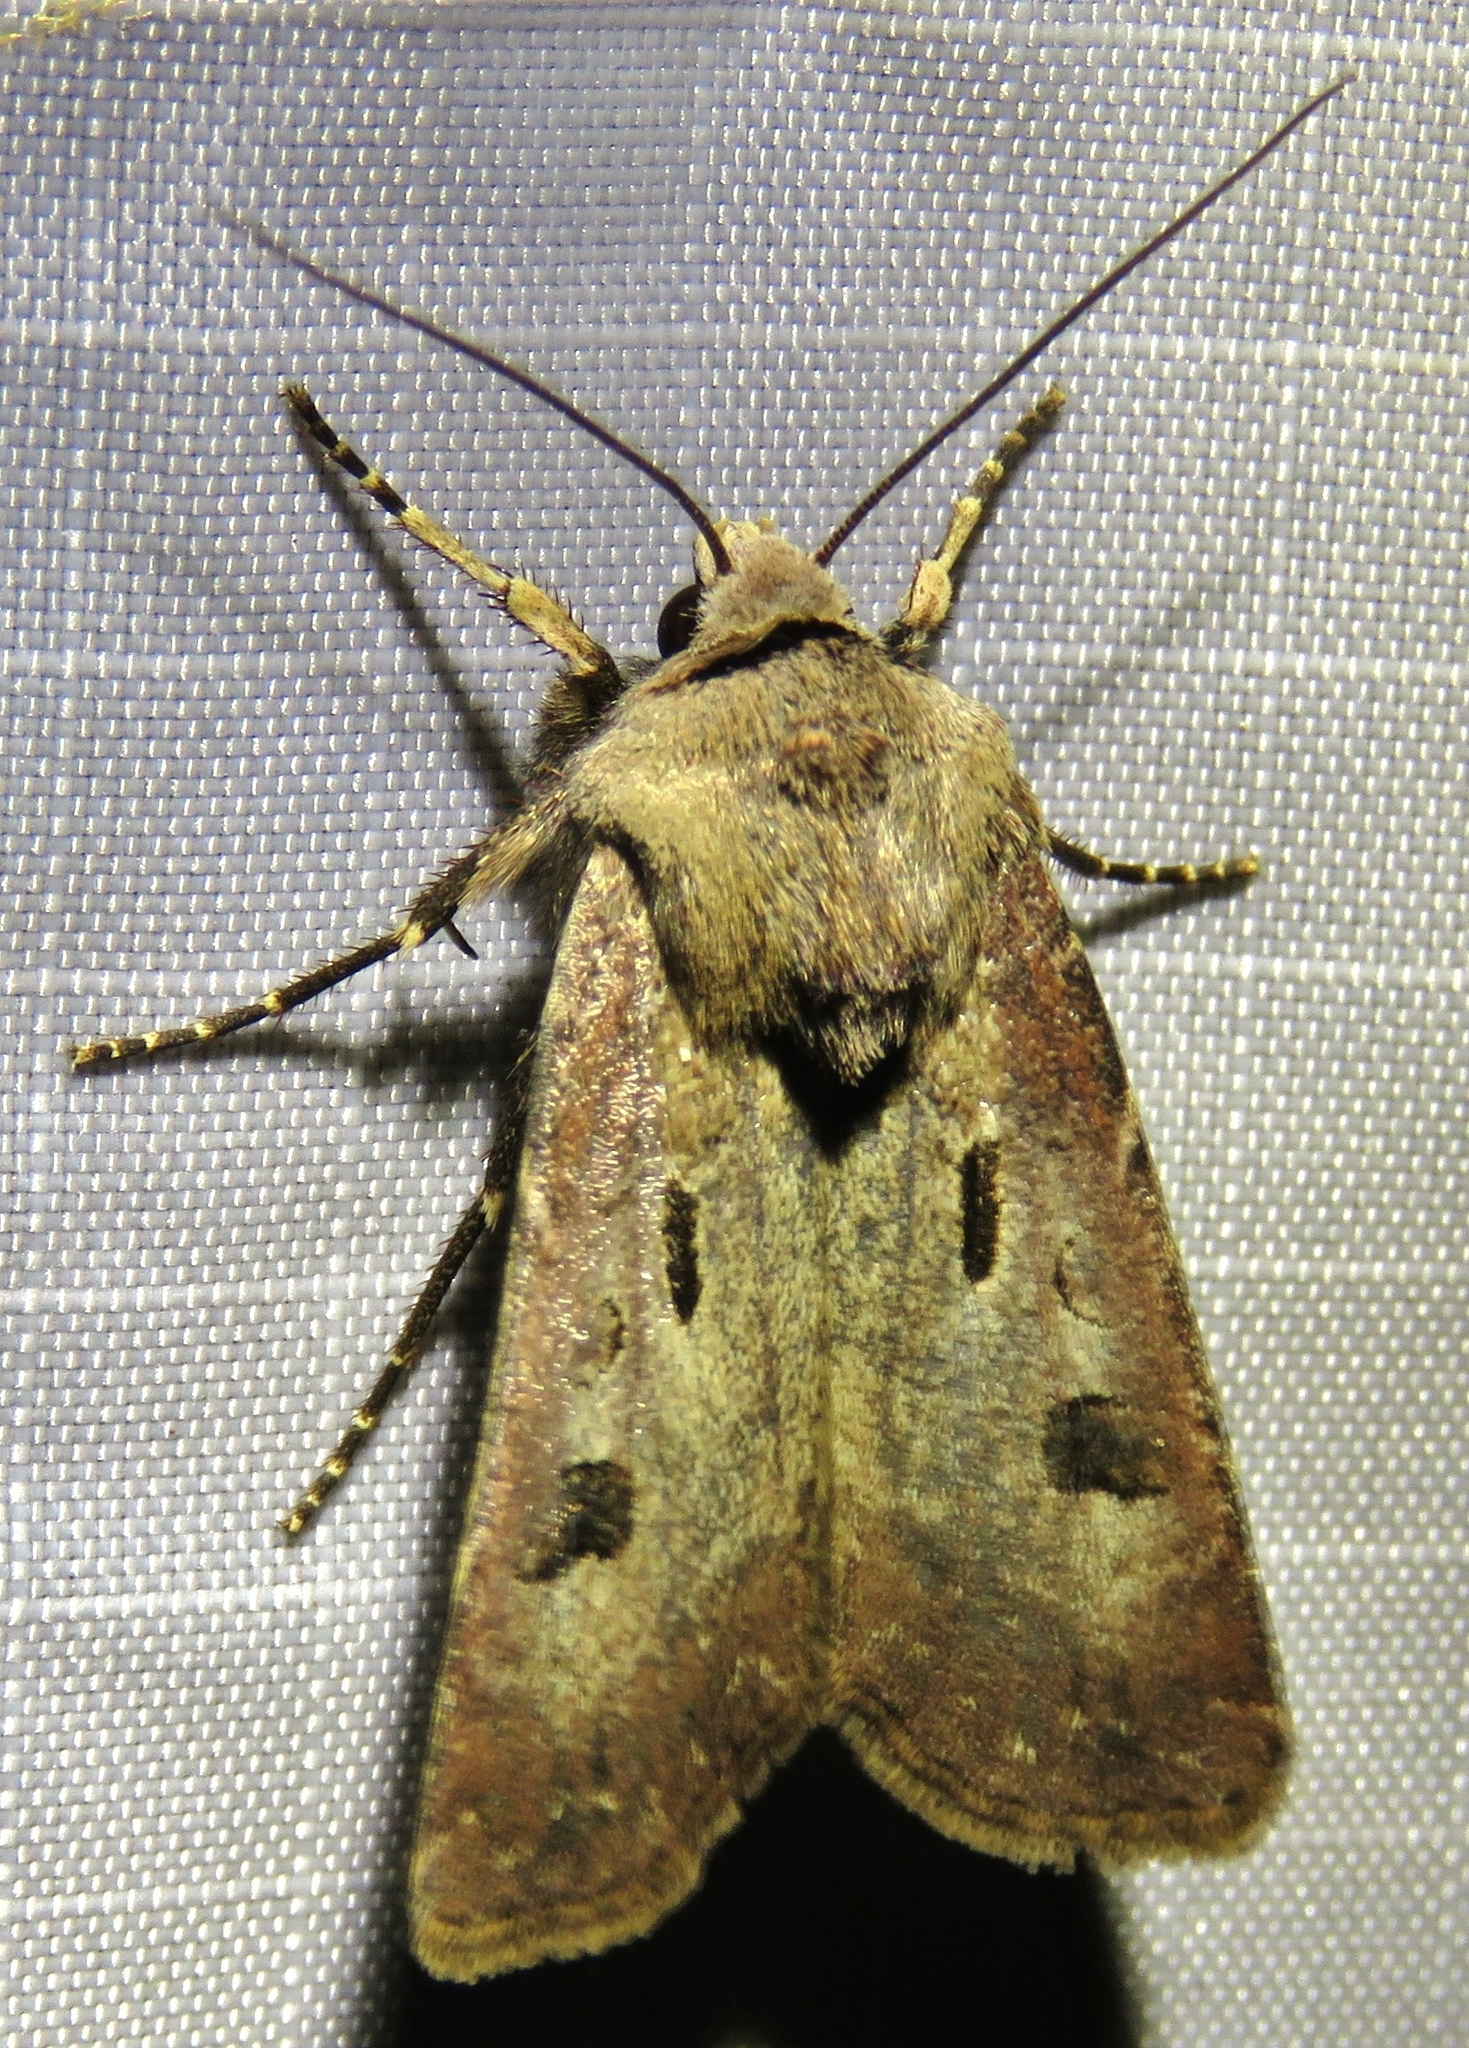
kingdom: Animalia
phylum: Arthropoda
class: Insecta
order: Lepidoptera
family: Noctuidae
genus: Agrotis
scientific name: Agrotis exclamationis
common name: Heart and dart
